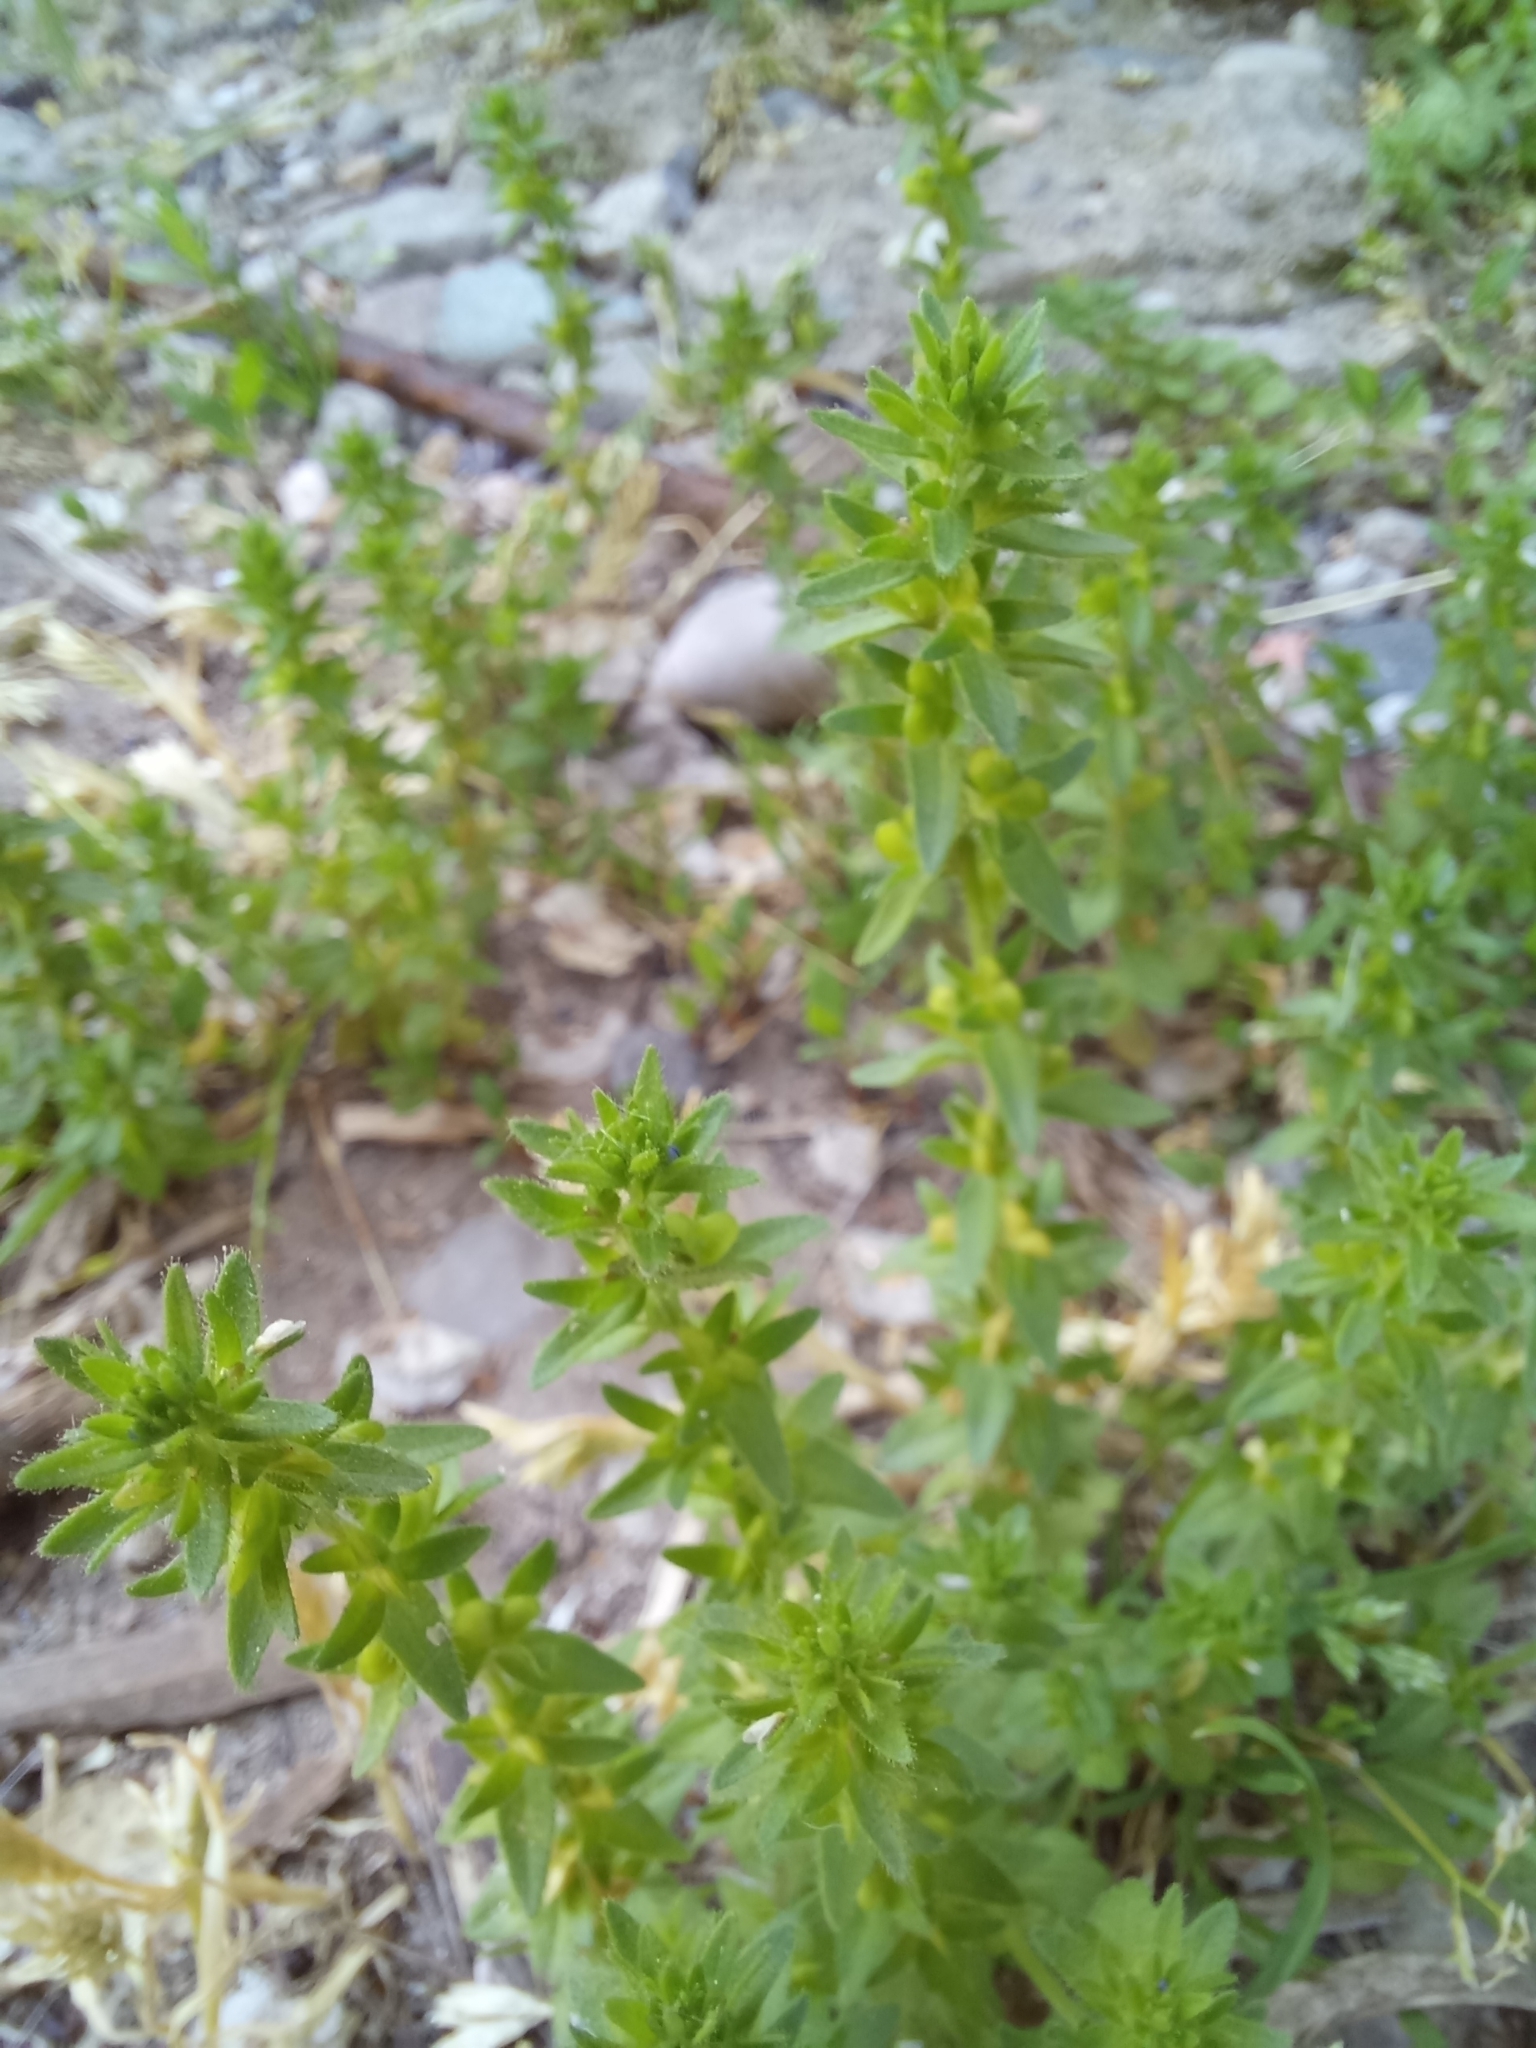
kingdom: Plantae
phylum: Tracheophyta
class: Magnoliopsida
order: Lamiales
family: Plantaginaceae
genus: Veronica
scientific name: Veronica arvensis
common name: Corn speedwell
